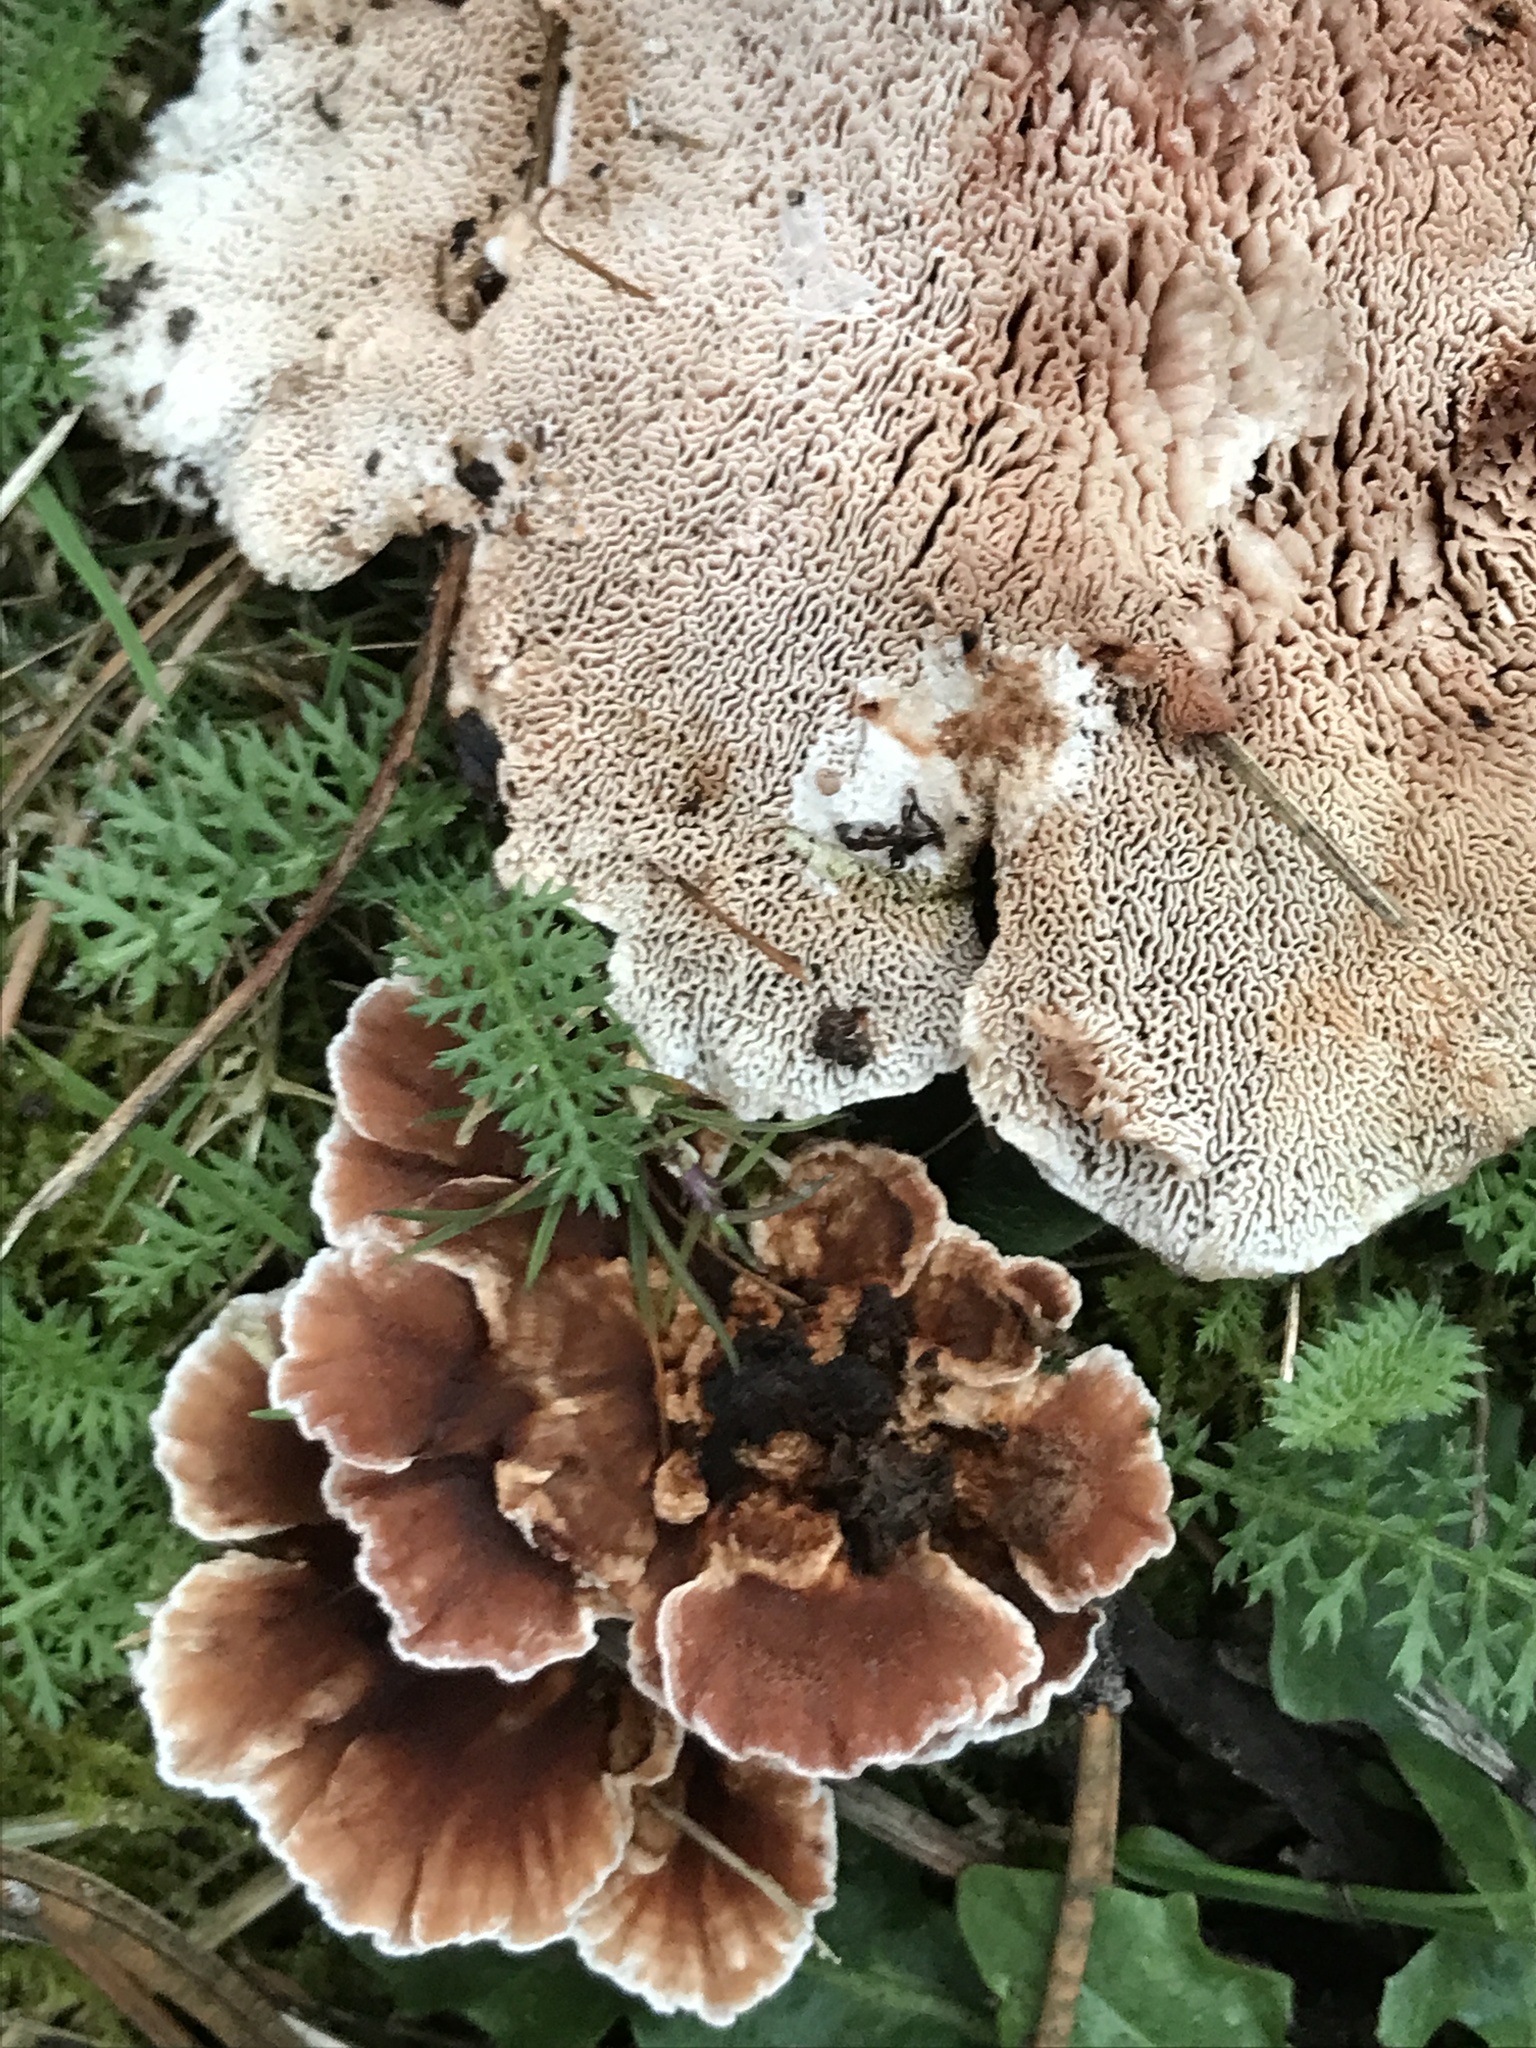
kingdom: Fungi
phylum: Basidiomycota
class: Agaricomycetes
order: Polyporales
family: Podoscyphaceae
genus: Abortiporus
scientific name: Abortiporus biennis
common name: Blushing rosette
